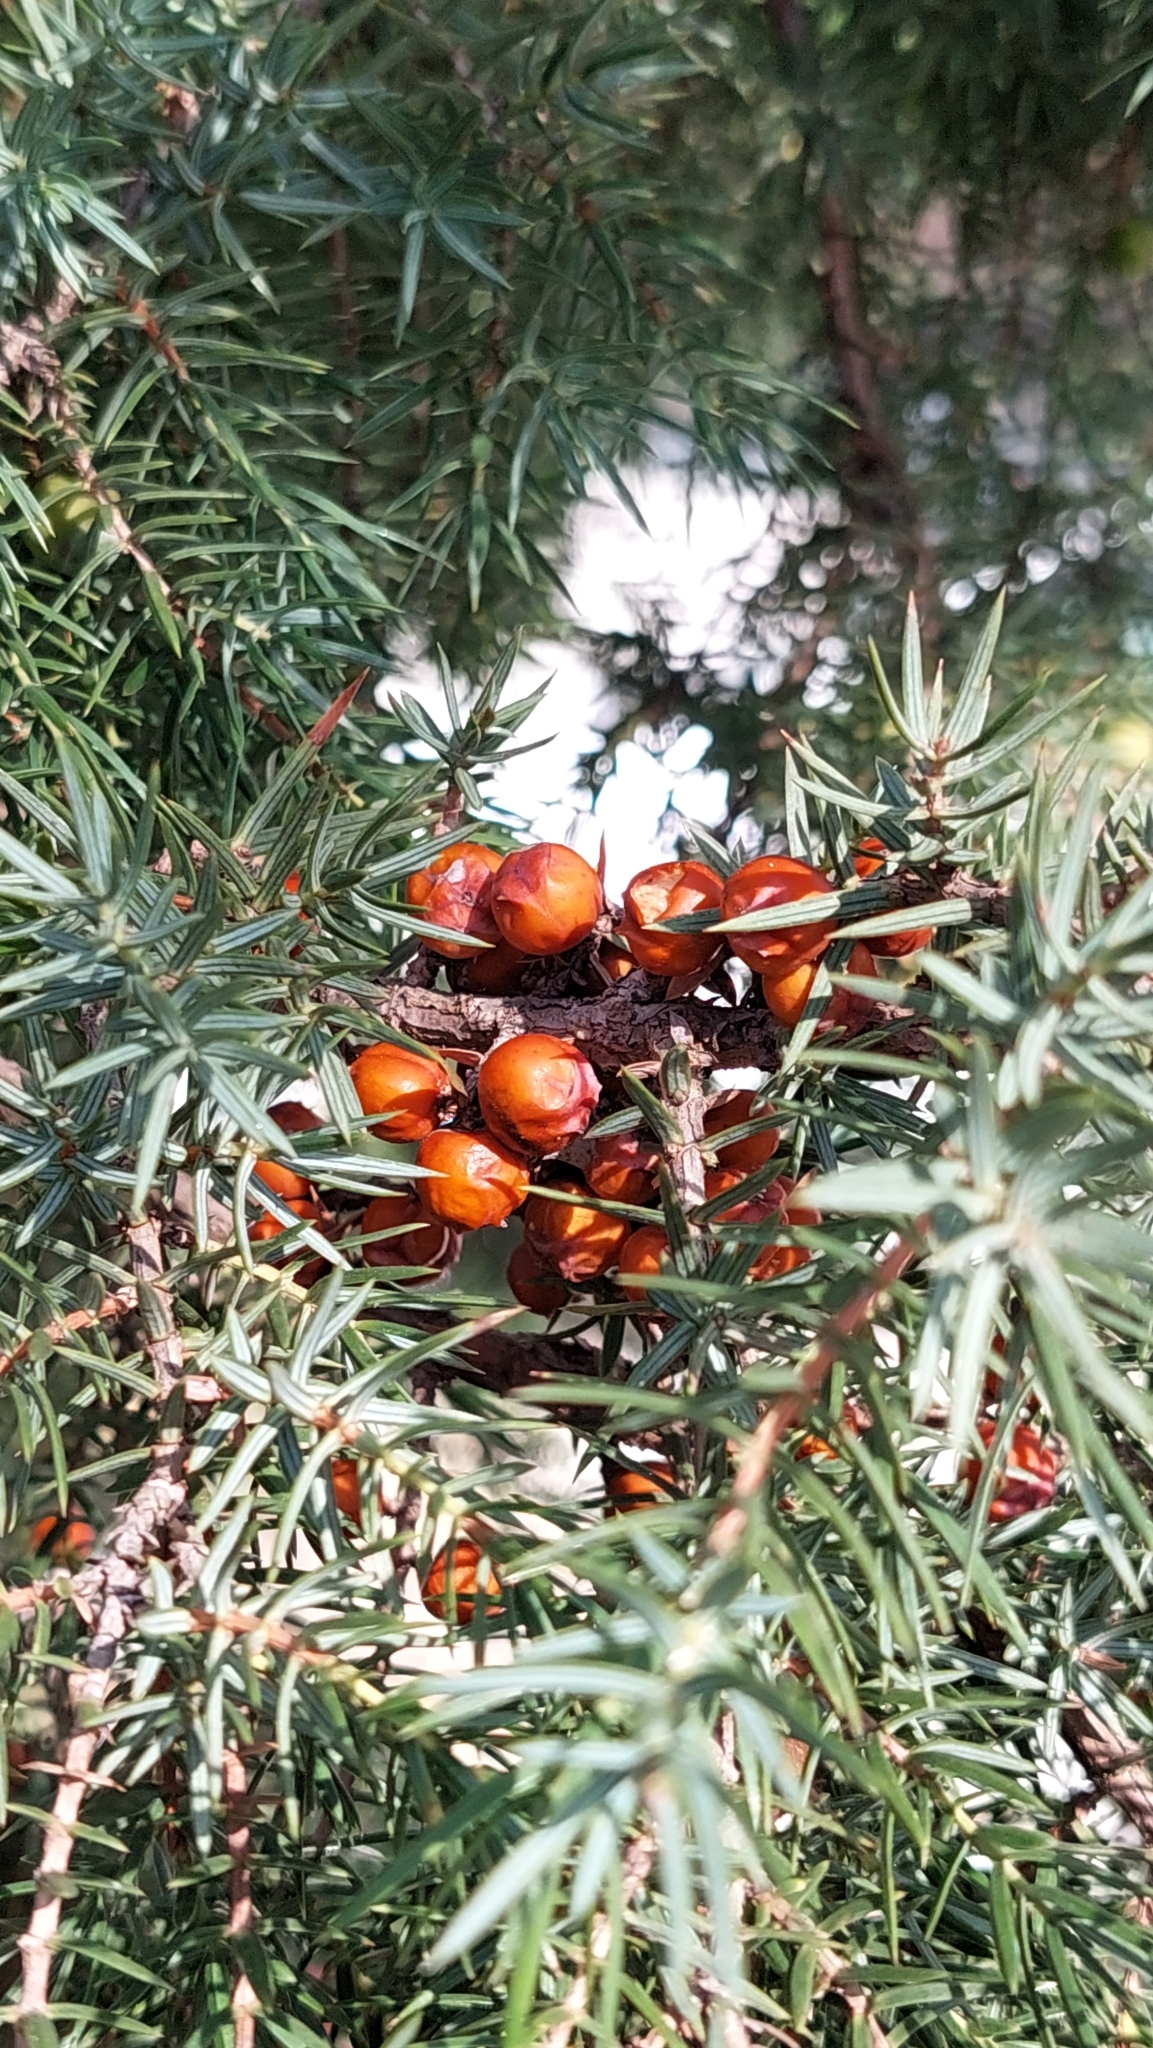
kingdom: Plantae
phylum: Tracheophyta
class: Pinopsida
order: Pinales
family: Cupressaceae
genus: Juniperus
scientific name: Juniperus oxycedrus
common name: Prickly juniper
